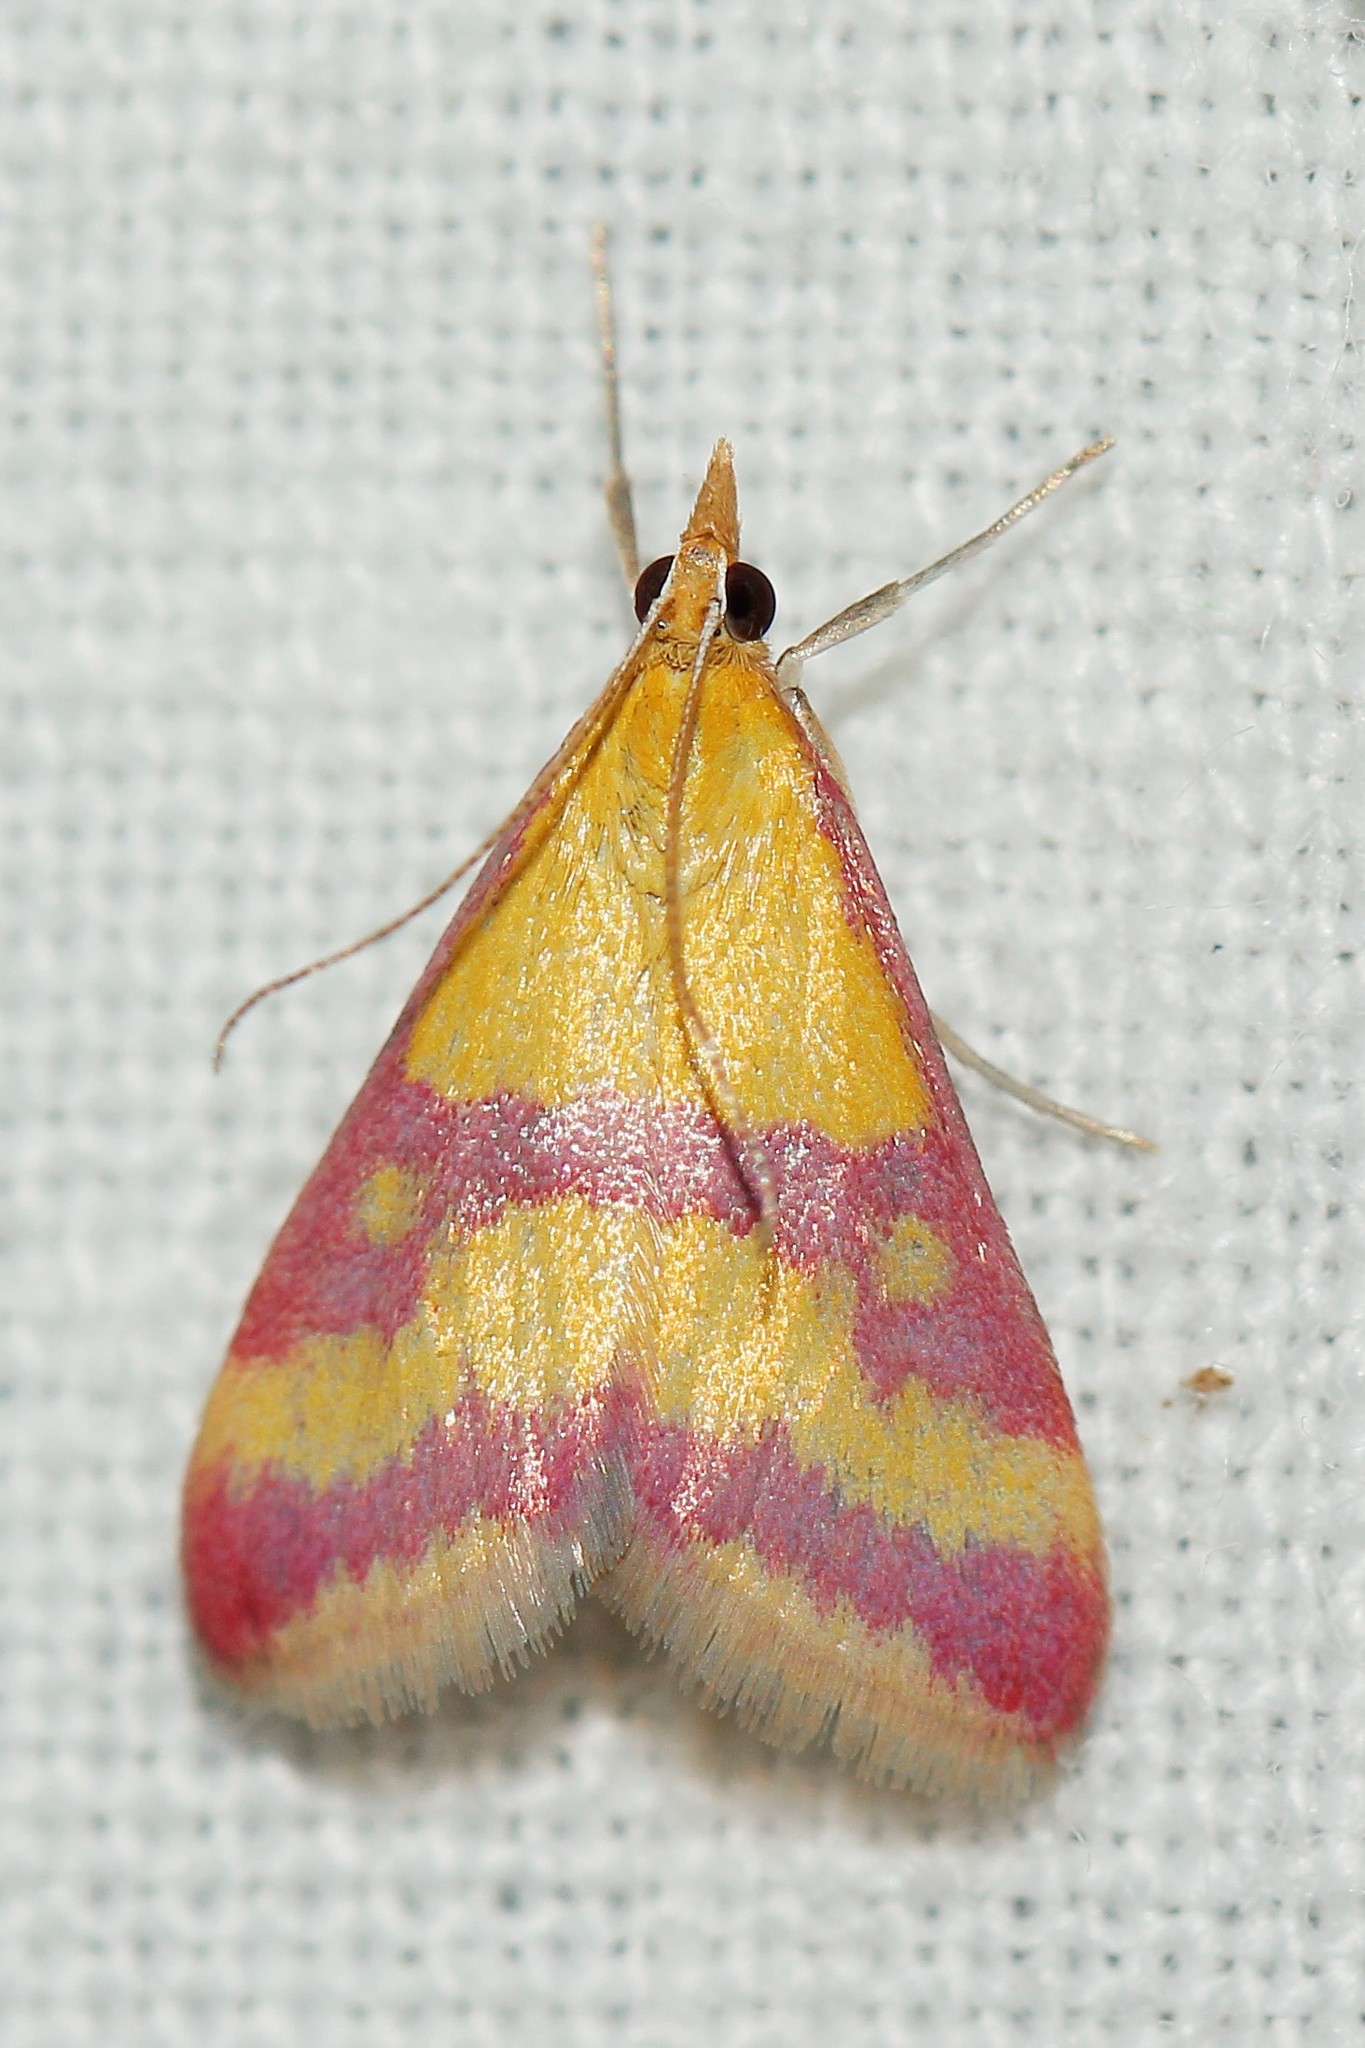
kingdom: Animalia
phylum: Arthropoda
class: Insecta
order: Lepidoptera
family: Crambidae
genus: Pyrausta
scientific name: Pyrausta sanguinalis
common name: Scarce crimson and gold
